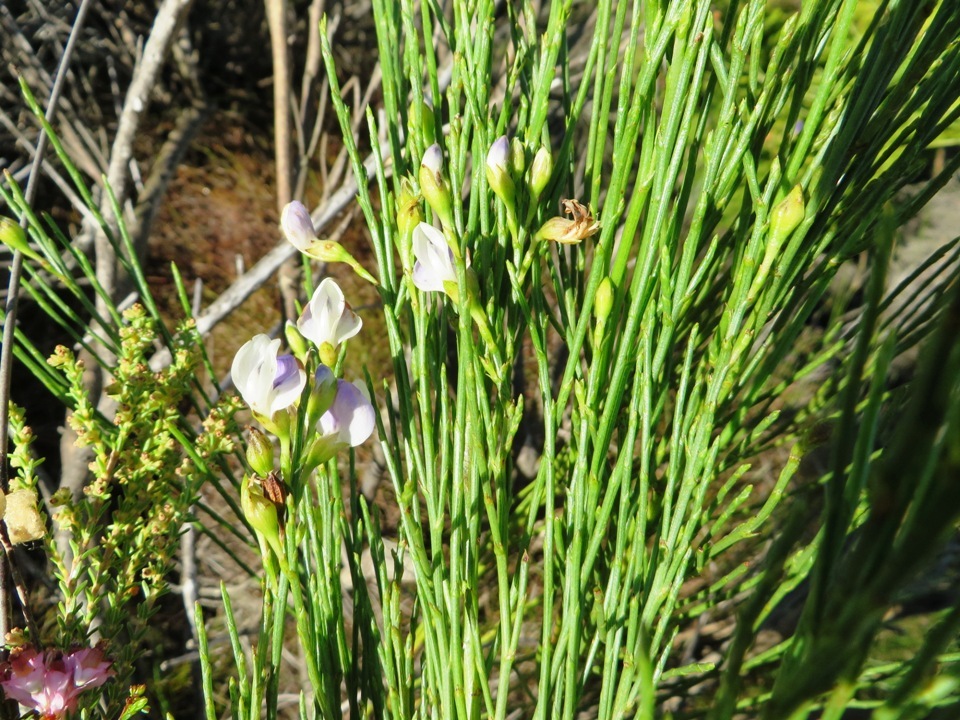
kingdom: Plantae
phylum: Tracheophyta
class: Magnoliopsida
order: Fabales
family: Fabaceae
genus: Psoralea
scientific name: Psoralea aphylla
